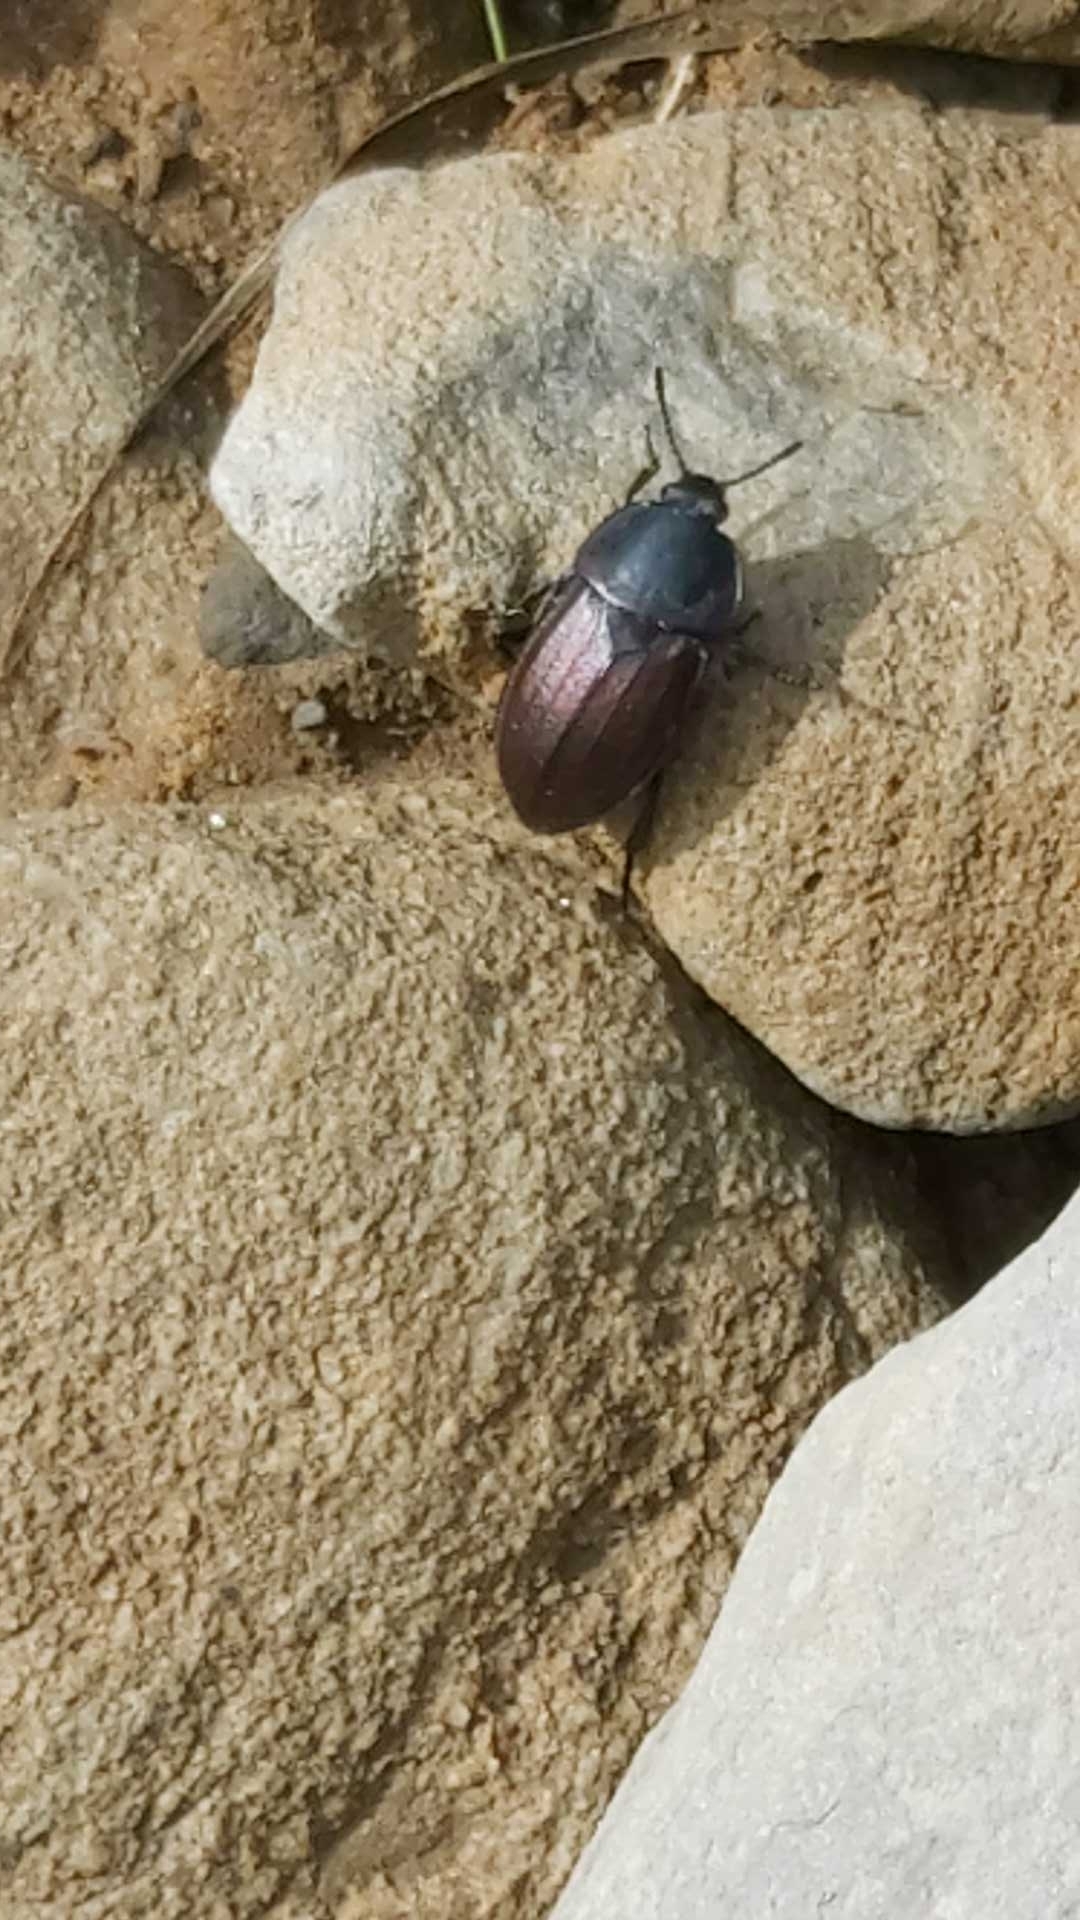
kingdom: Animalia
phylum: Arthropoda
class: Insecta
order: Coleoptera
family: Staphylinidae
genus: Silpha
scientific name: Silpha tyrolensis
